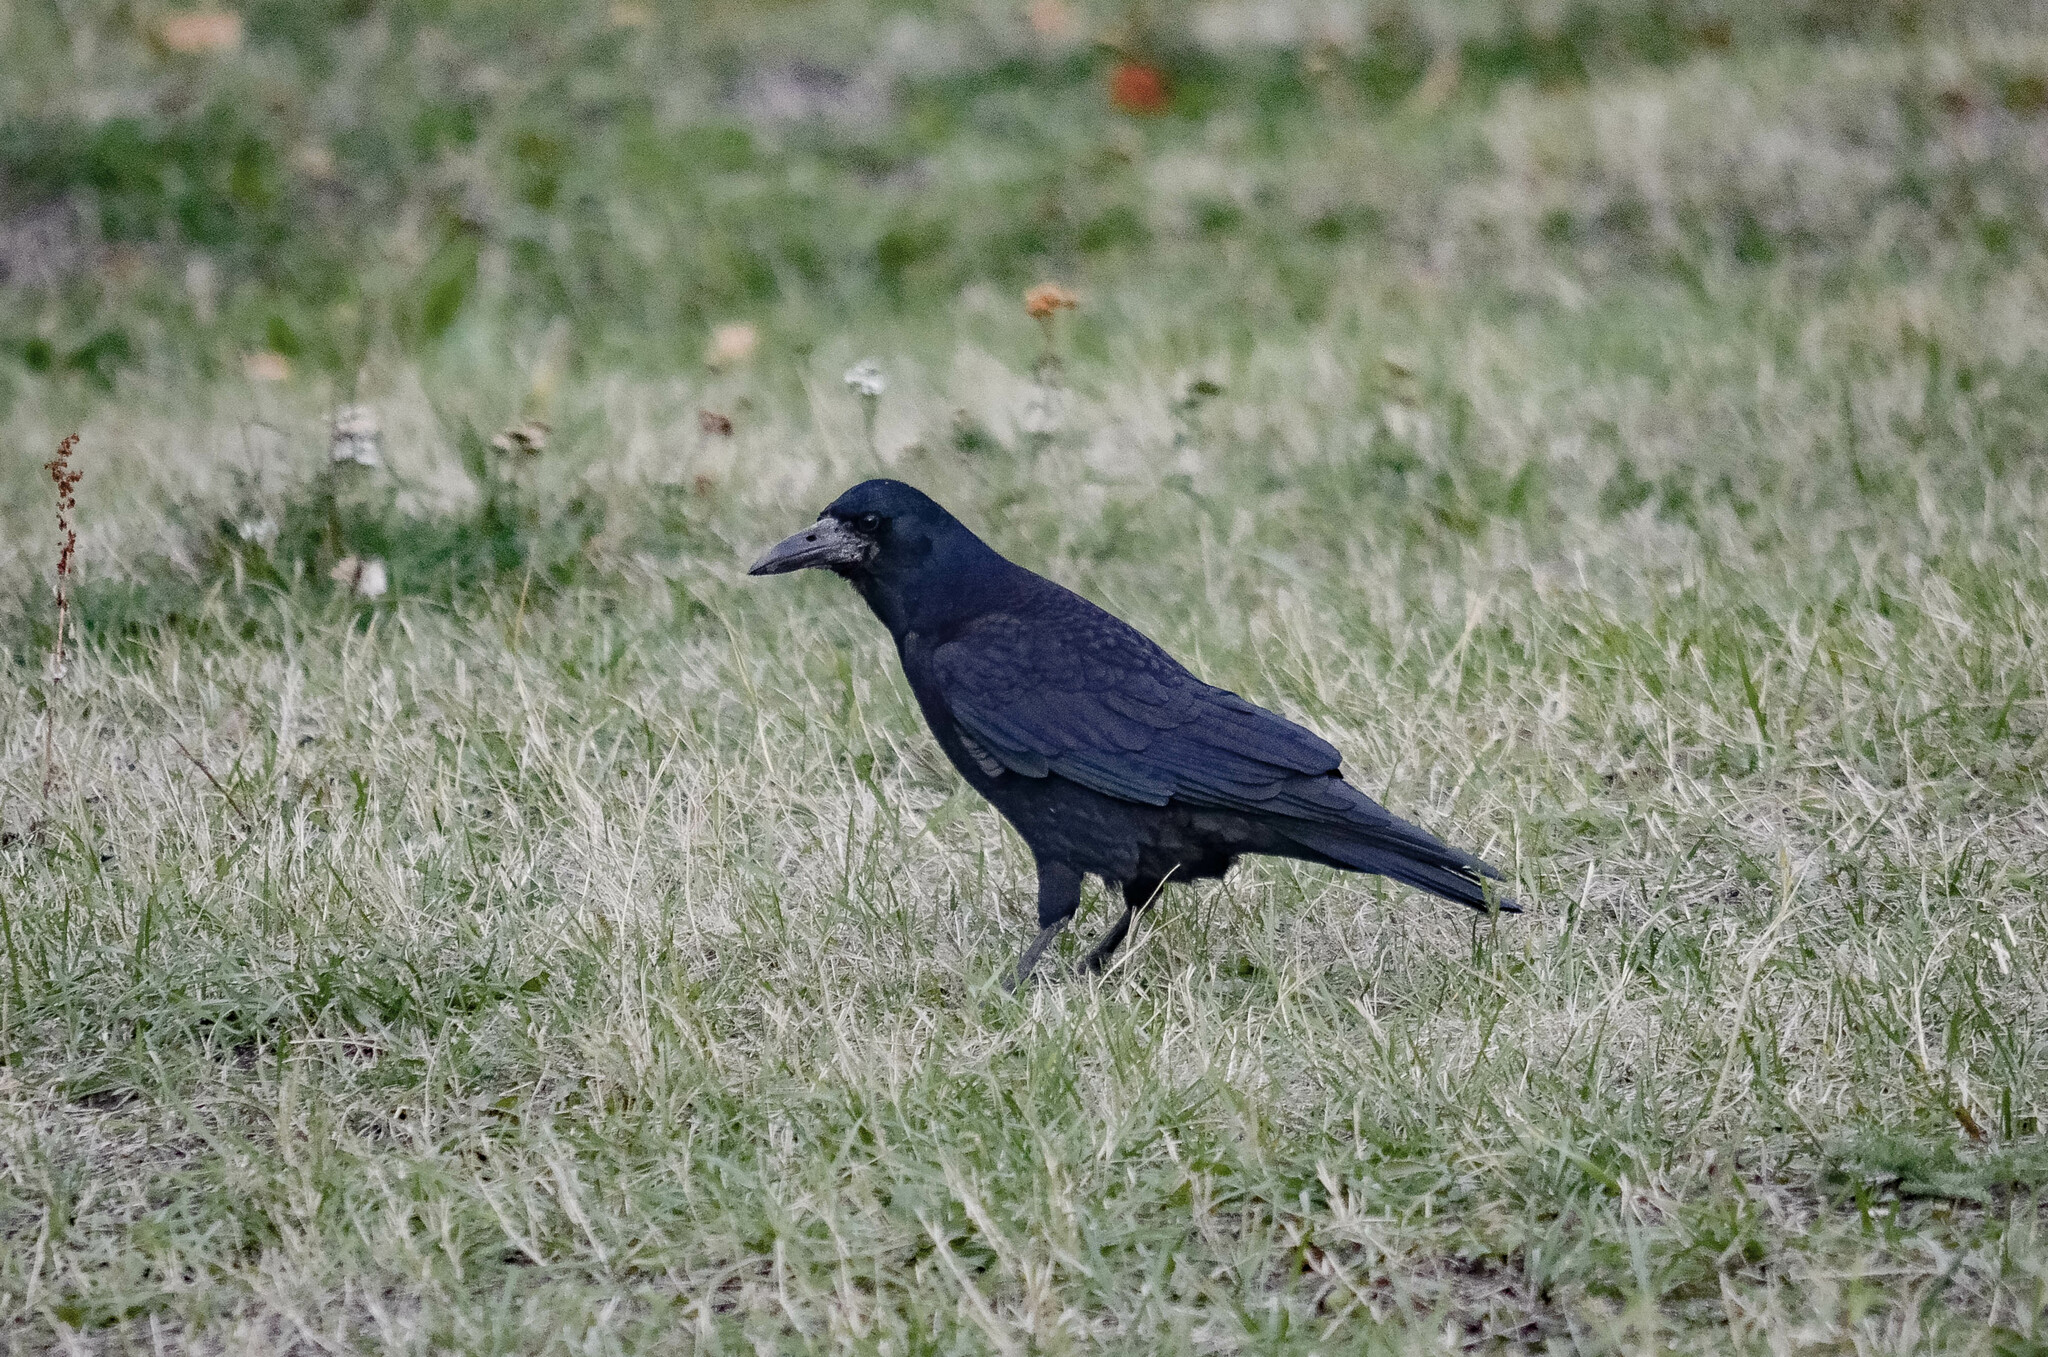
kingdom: Animalia
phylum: Chordata
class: Aves
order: Passeriformes
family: Corvidae
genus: Corvus
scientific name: Corvus frugilegus
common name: Rook
